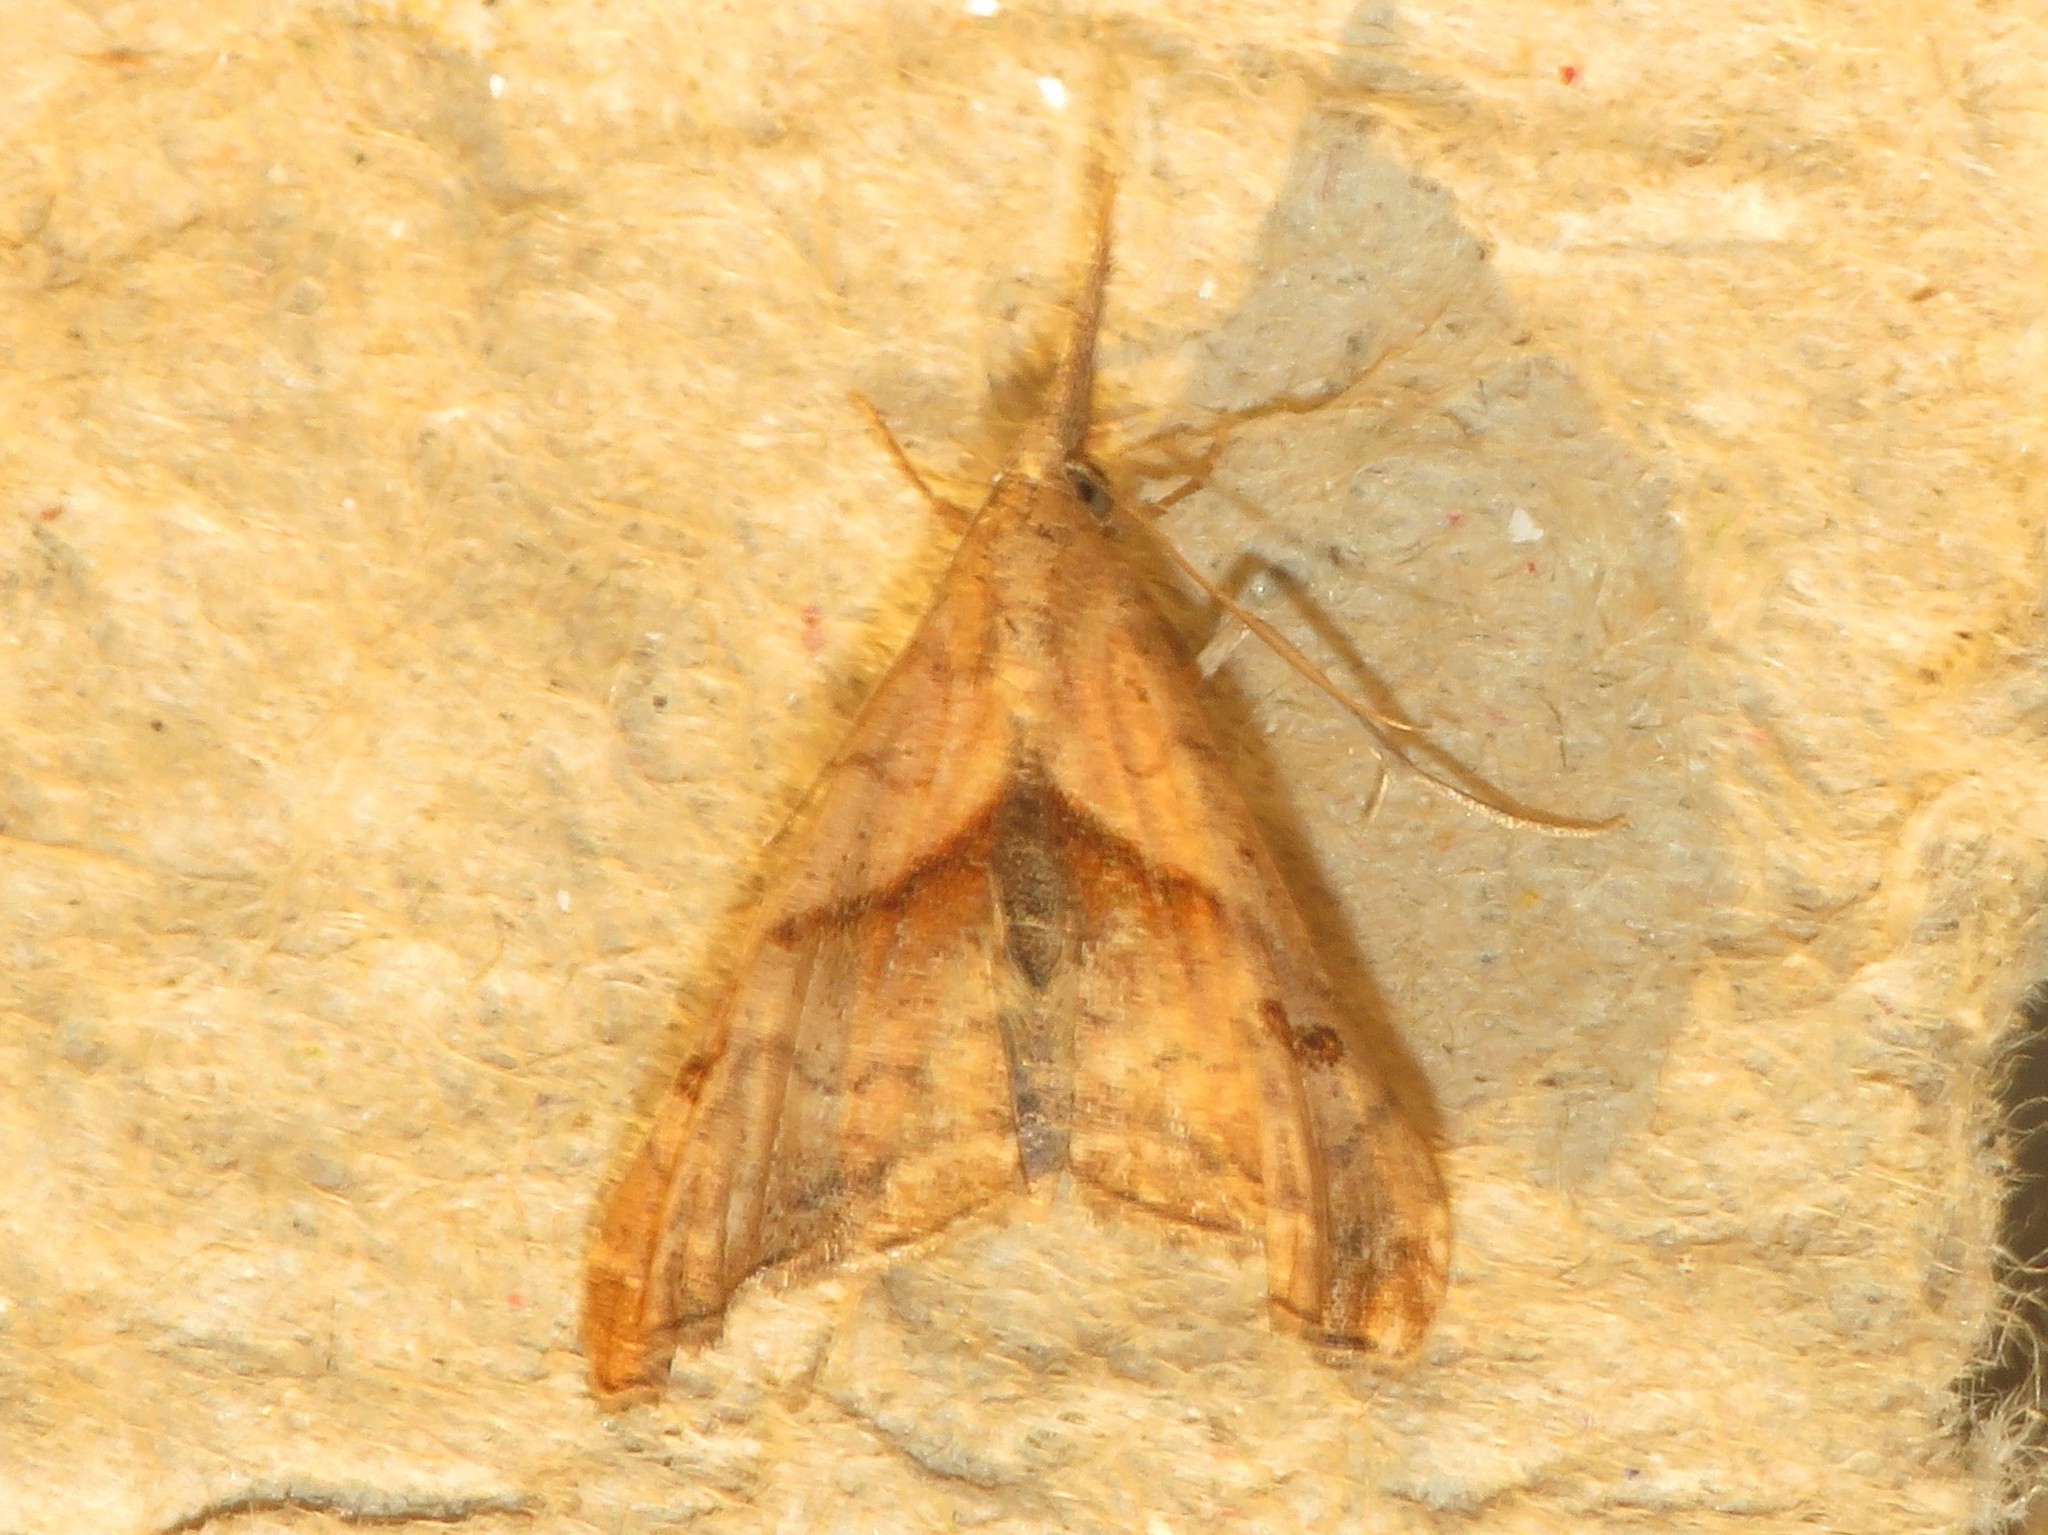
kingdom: Animalia
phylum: Arthropoda
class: Insecta
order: Lepidoptera
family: Erebidae
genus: Palthis
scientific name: Palthis angulalis
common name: Dark-spotted palthis moth
